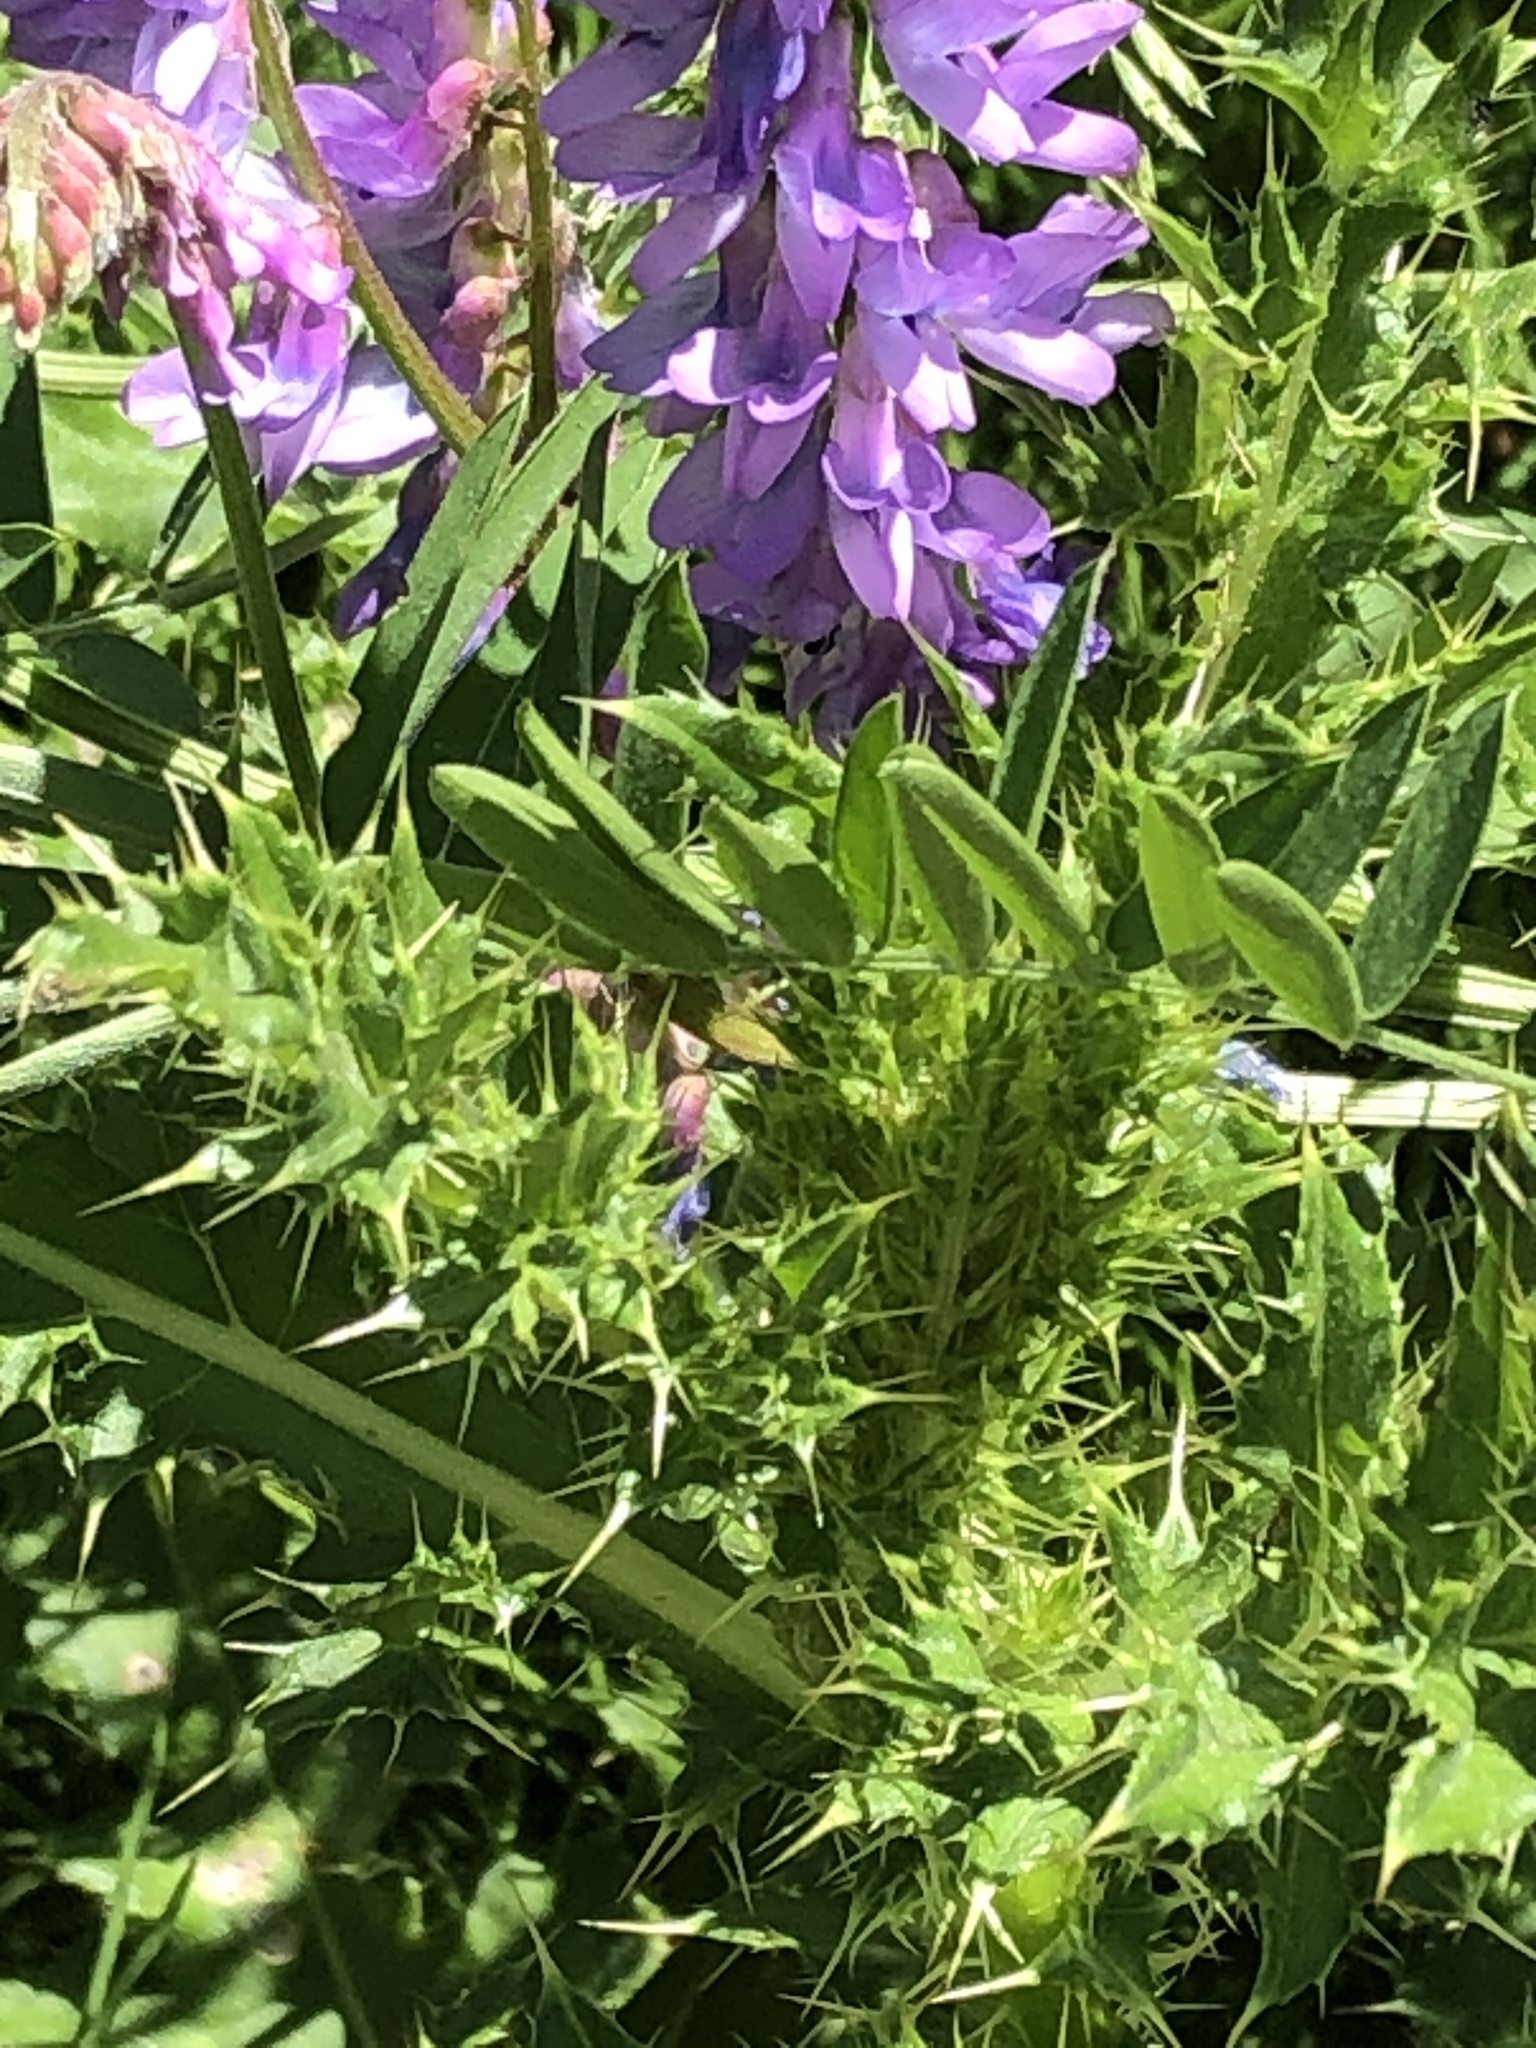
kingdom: Plantae
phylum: Tracheophyta
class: Magnoliopsida
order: Fabales
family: Fabaceae
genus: Vicia
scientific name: Vicia cracca
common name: Bird vetch
